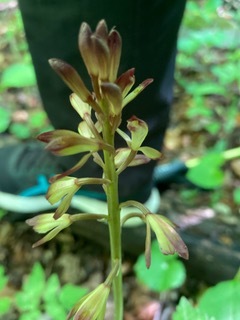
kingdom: Plantae
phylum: Tracheophyta
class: Liliopsida
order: Asparagales
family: Orchidaceae
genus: Aplectrum
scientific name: Aplectrum hyemale
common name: Adam-and-eve
